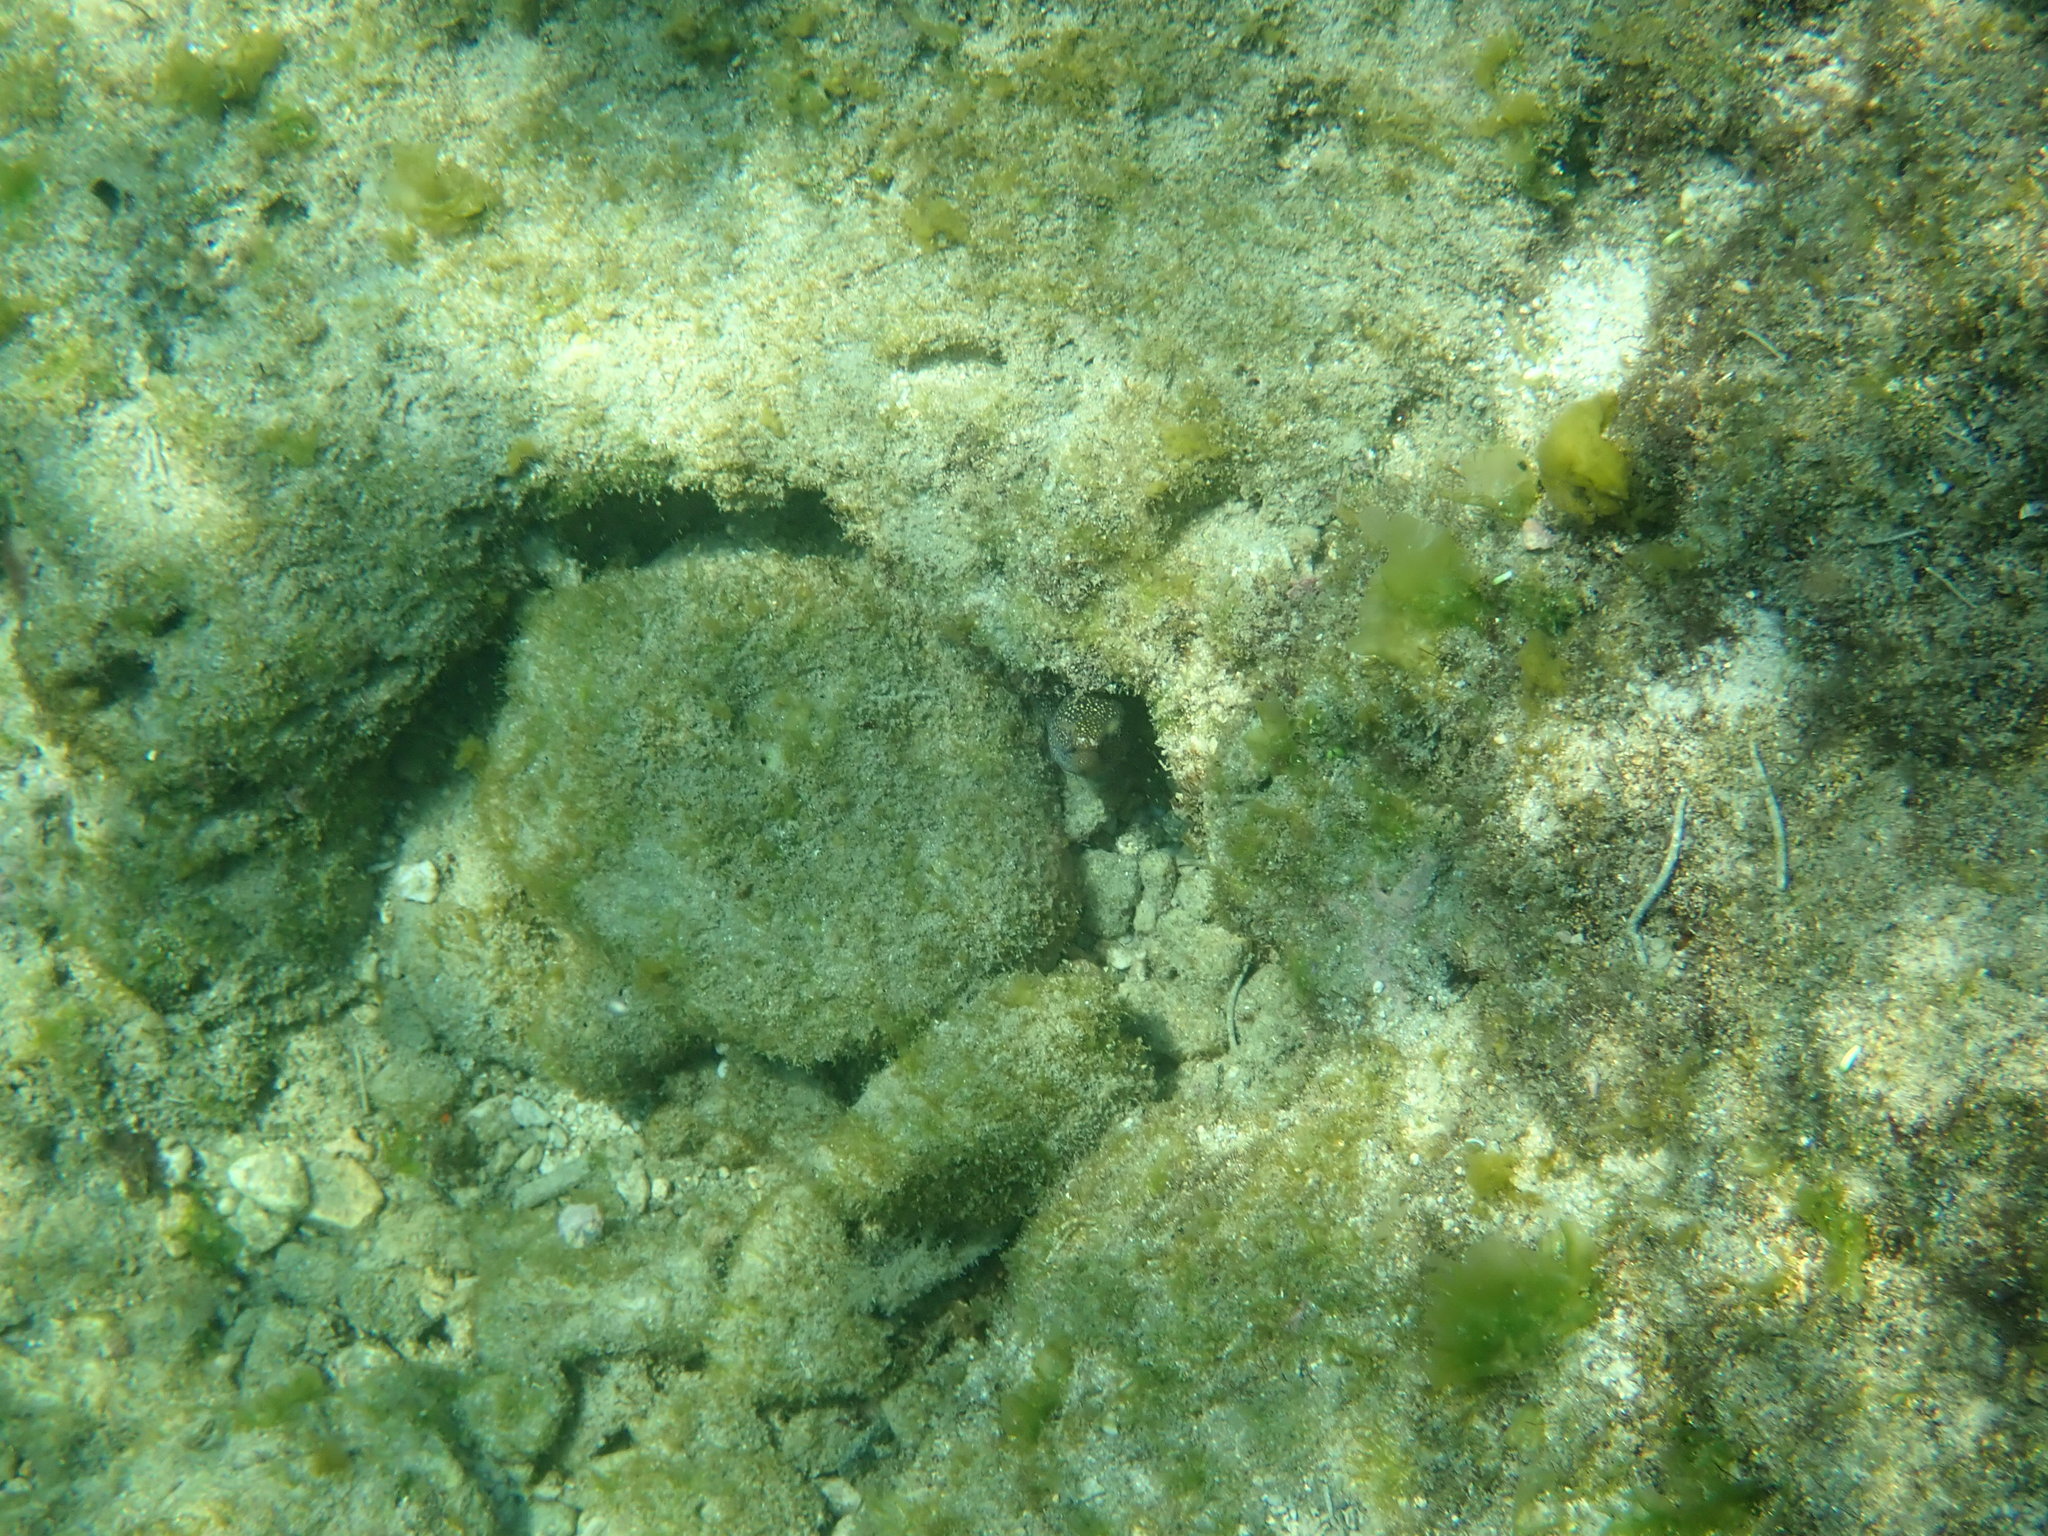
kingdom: Animalia
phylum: Chordata
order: Anguilliformes
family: Muraenidae
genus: Gymnothorax
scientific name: Gymnothorax eurostus
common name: Stout moray
